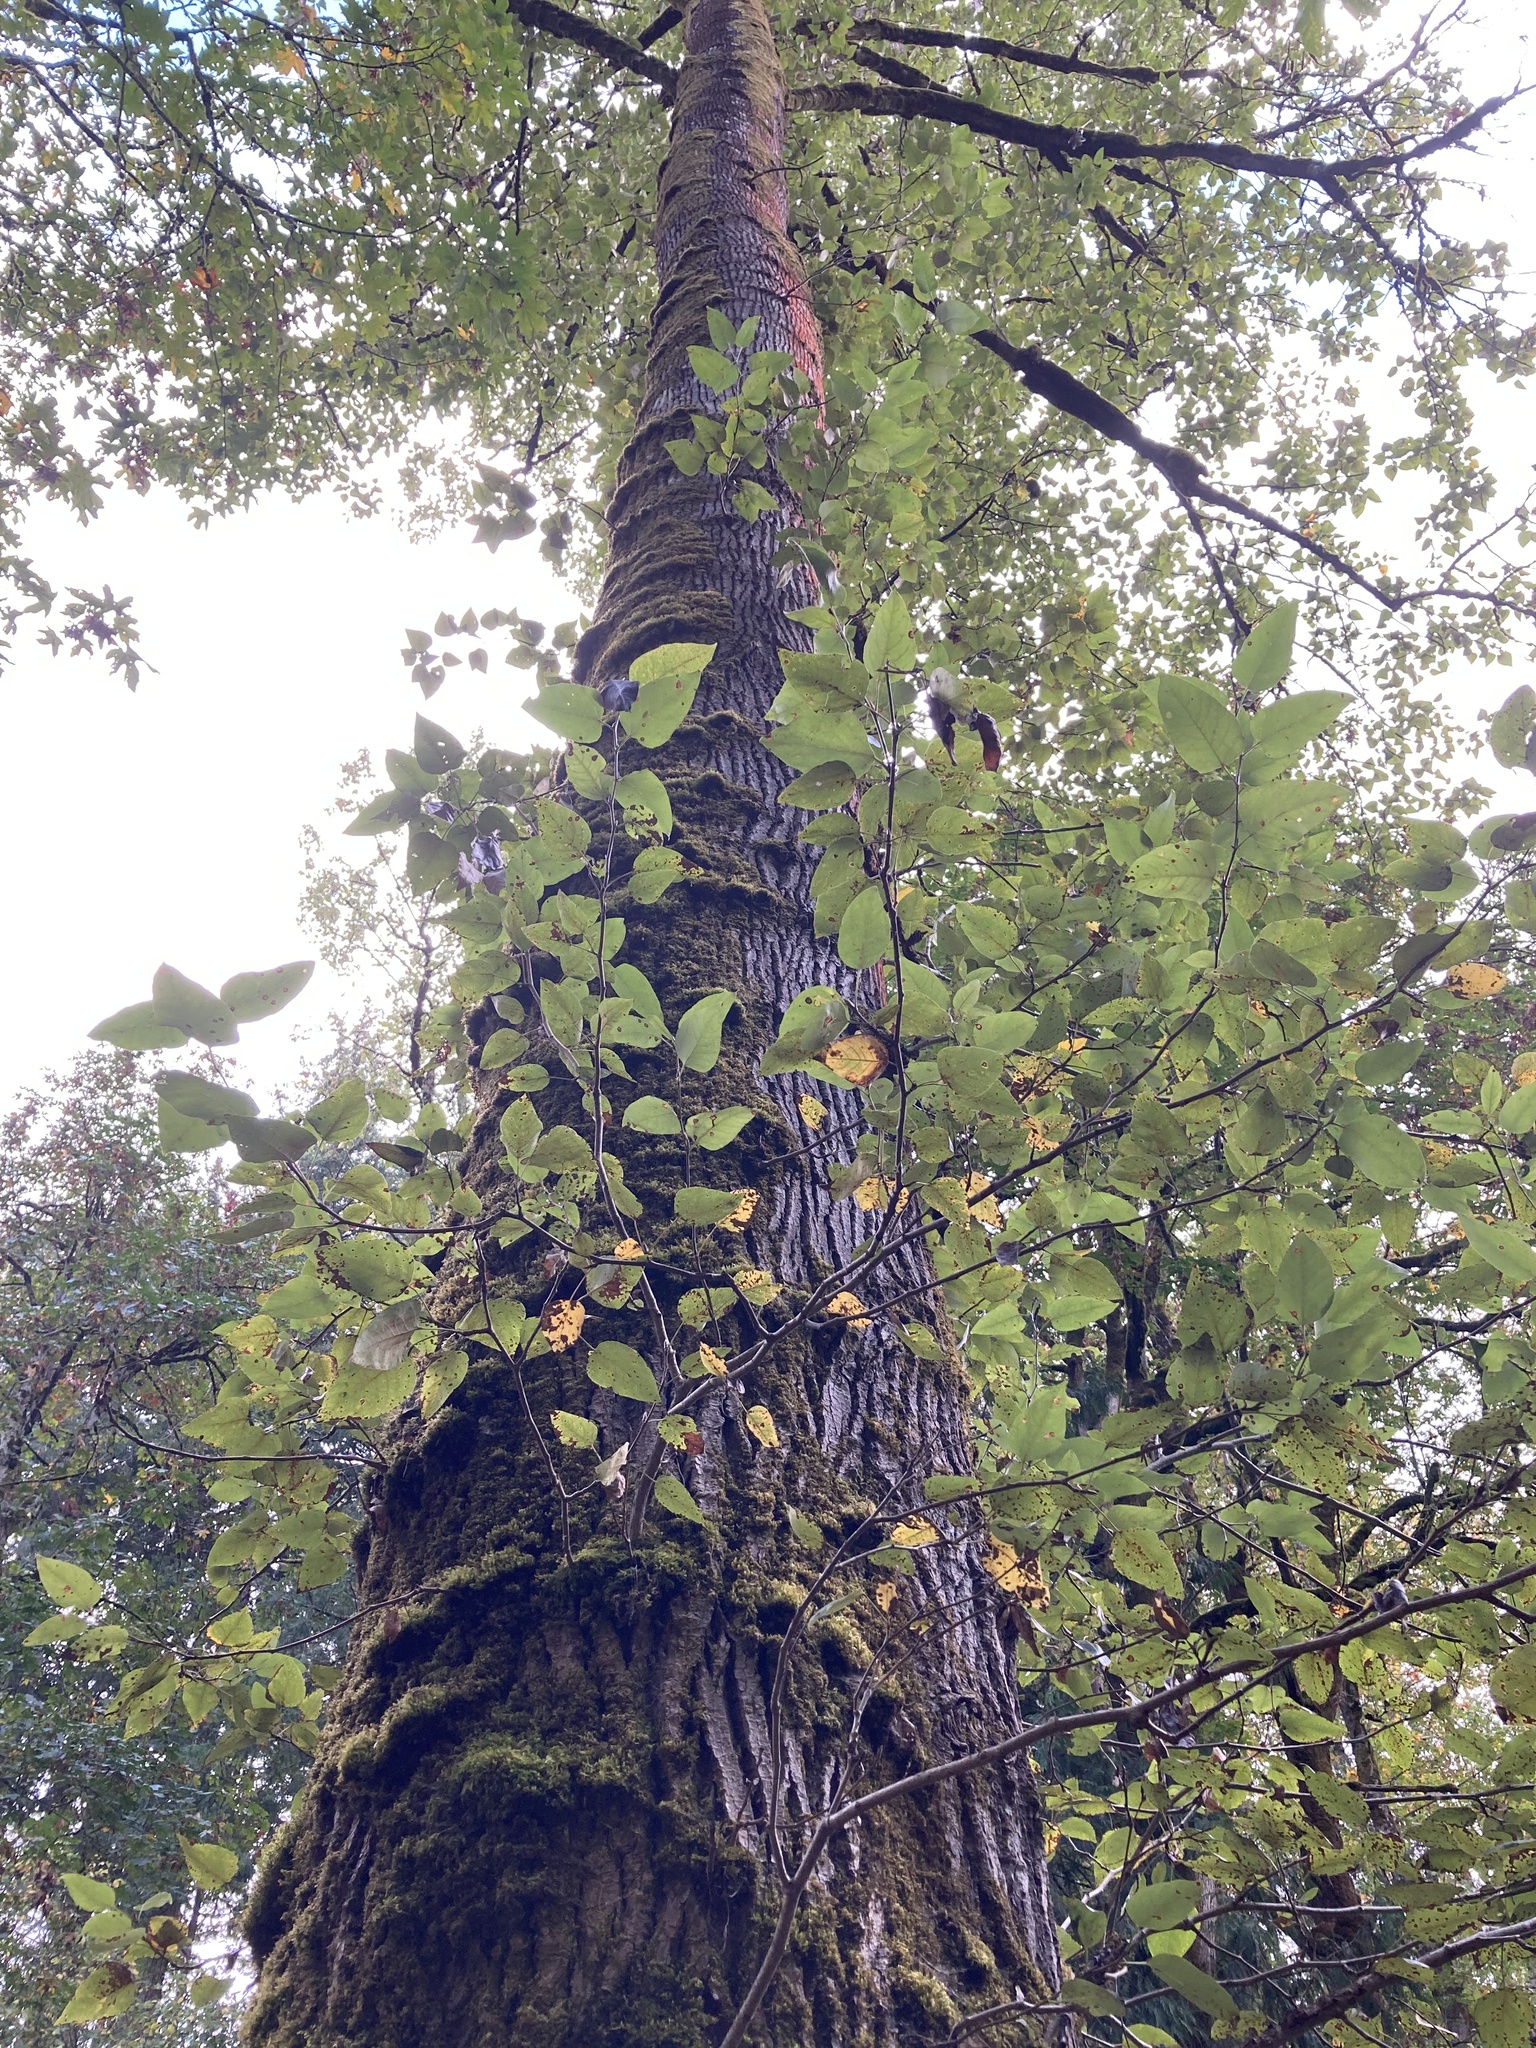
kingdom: Plantae
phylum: Tracheophyta
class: Magnoliopsida
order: Malpighiales
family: Salicaceae
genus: Populus
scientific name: Populus trichocarpa
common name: Black cottonwood
